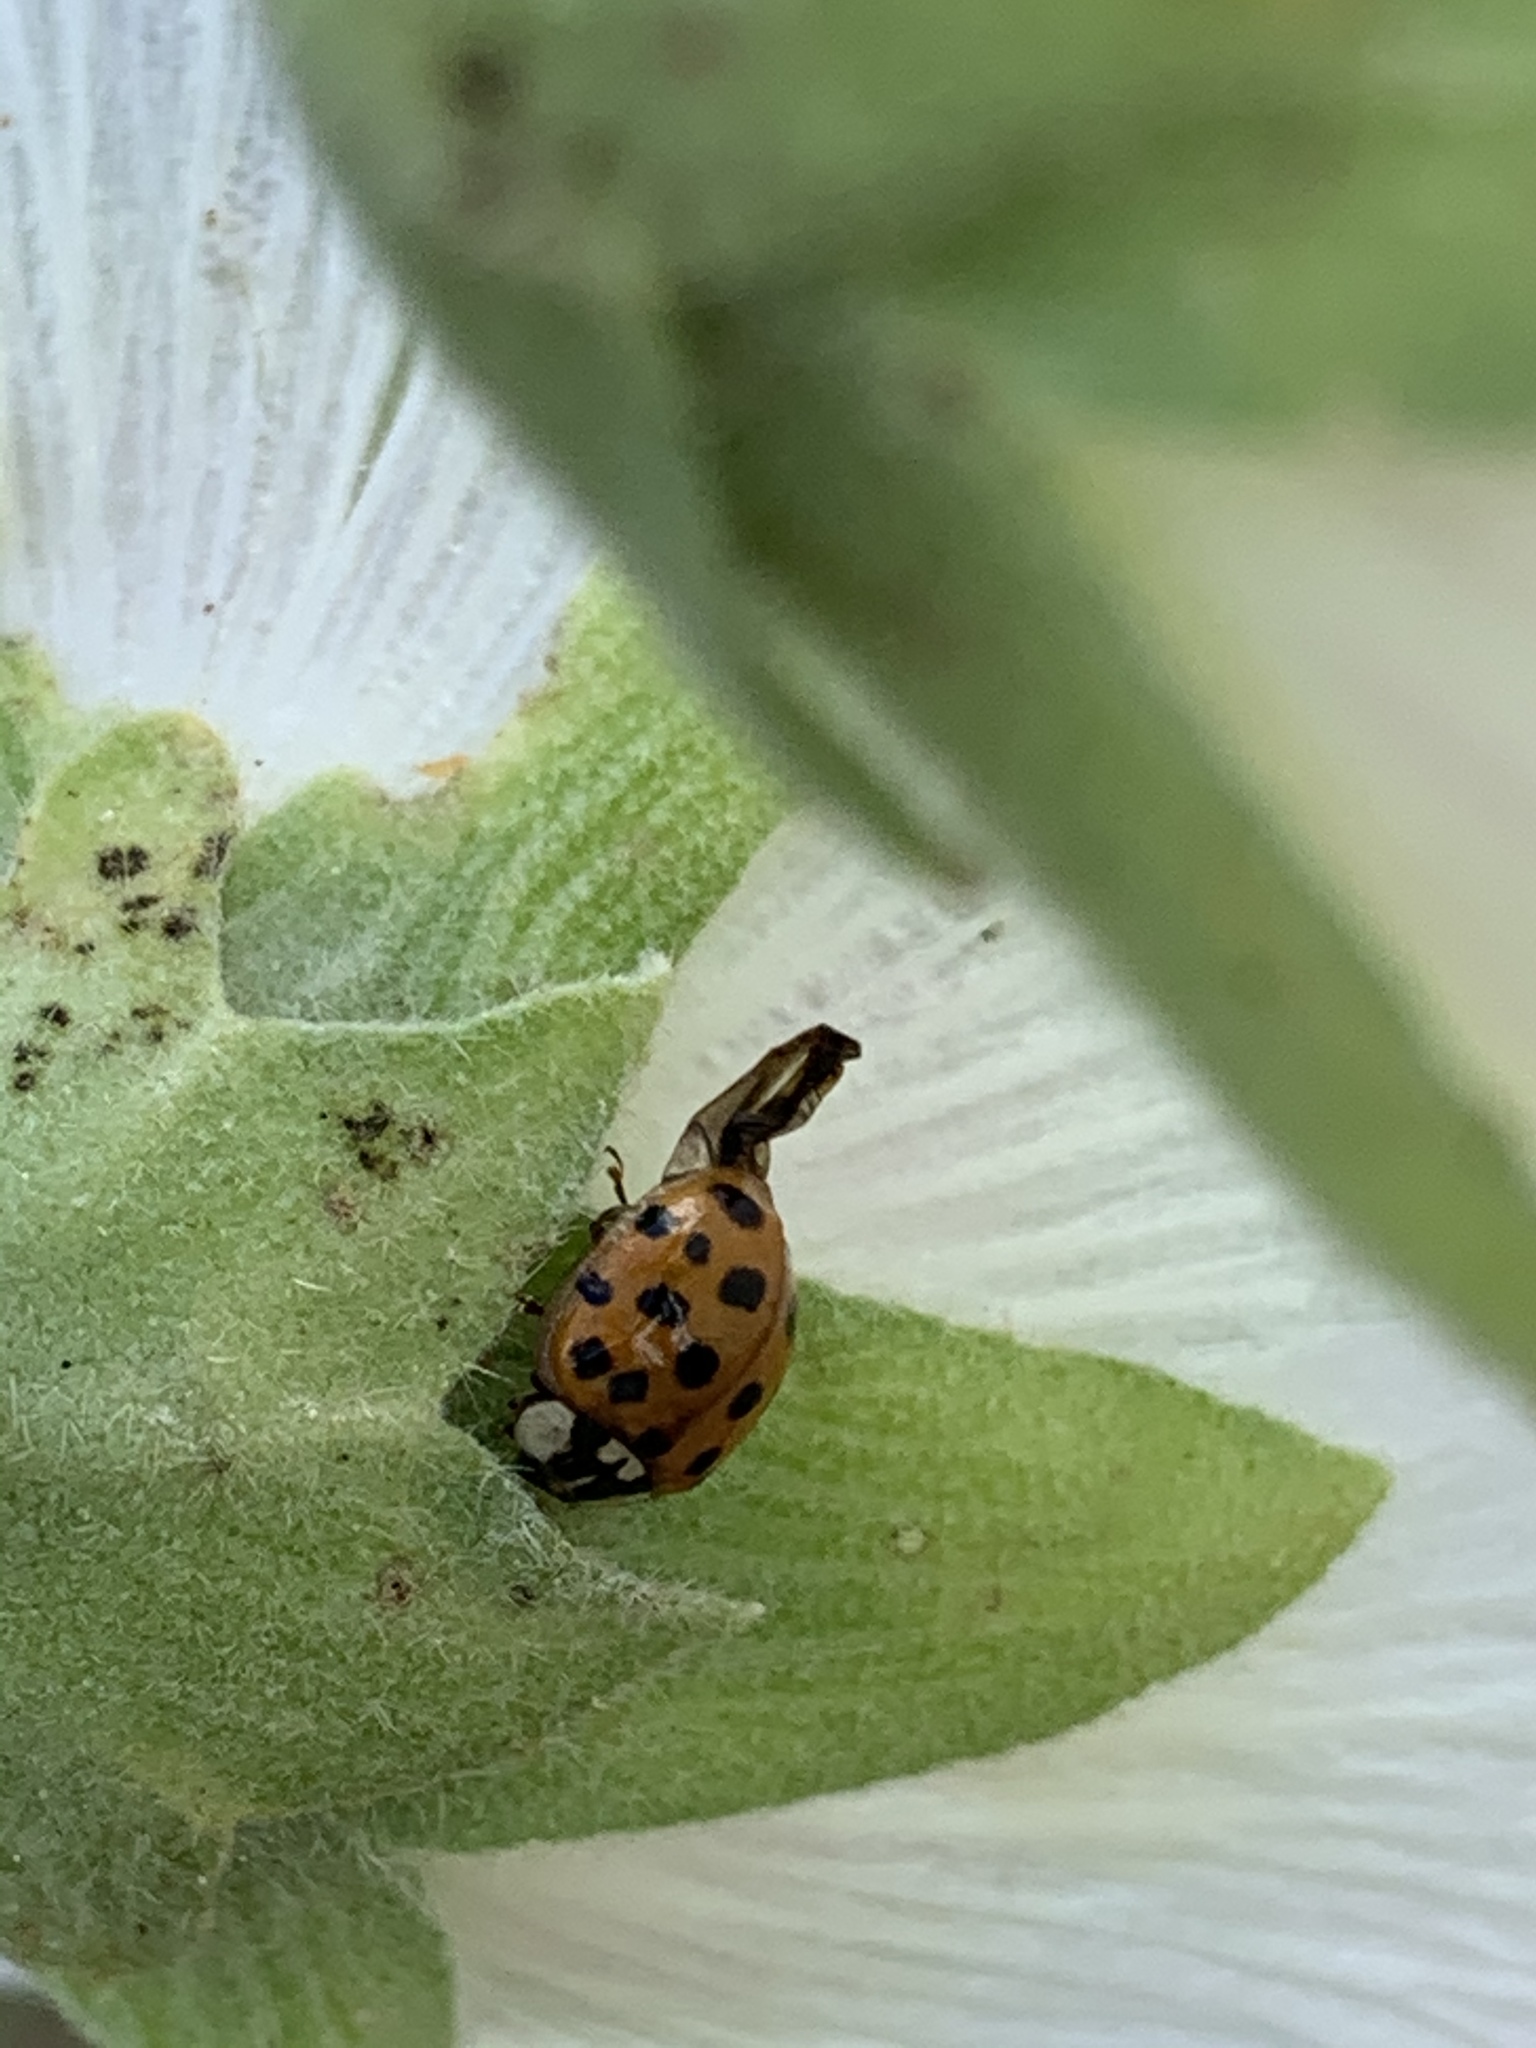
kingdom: Animalia
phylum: Arthropoda
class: Insecta
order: Coleoptera
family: Coccinellidae
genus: Harmonia
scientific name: Harmonia axyridis
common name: Harlequin ladybird
